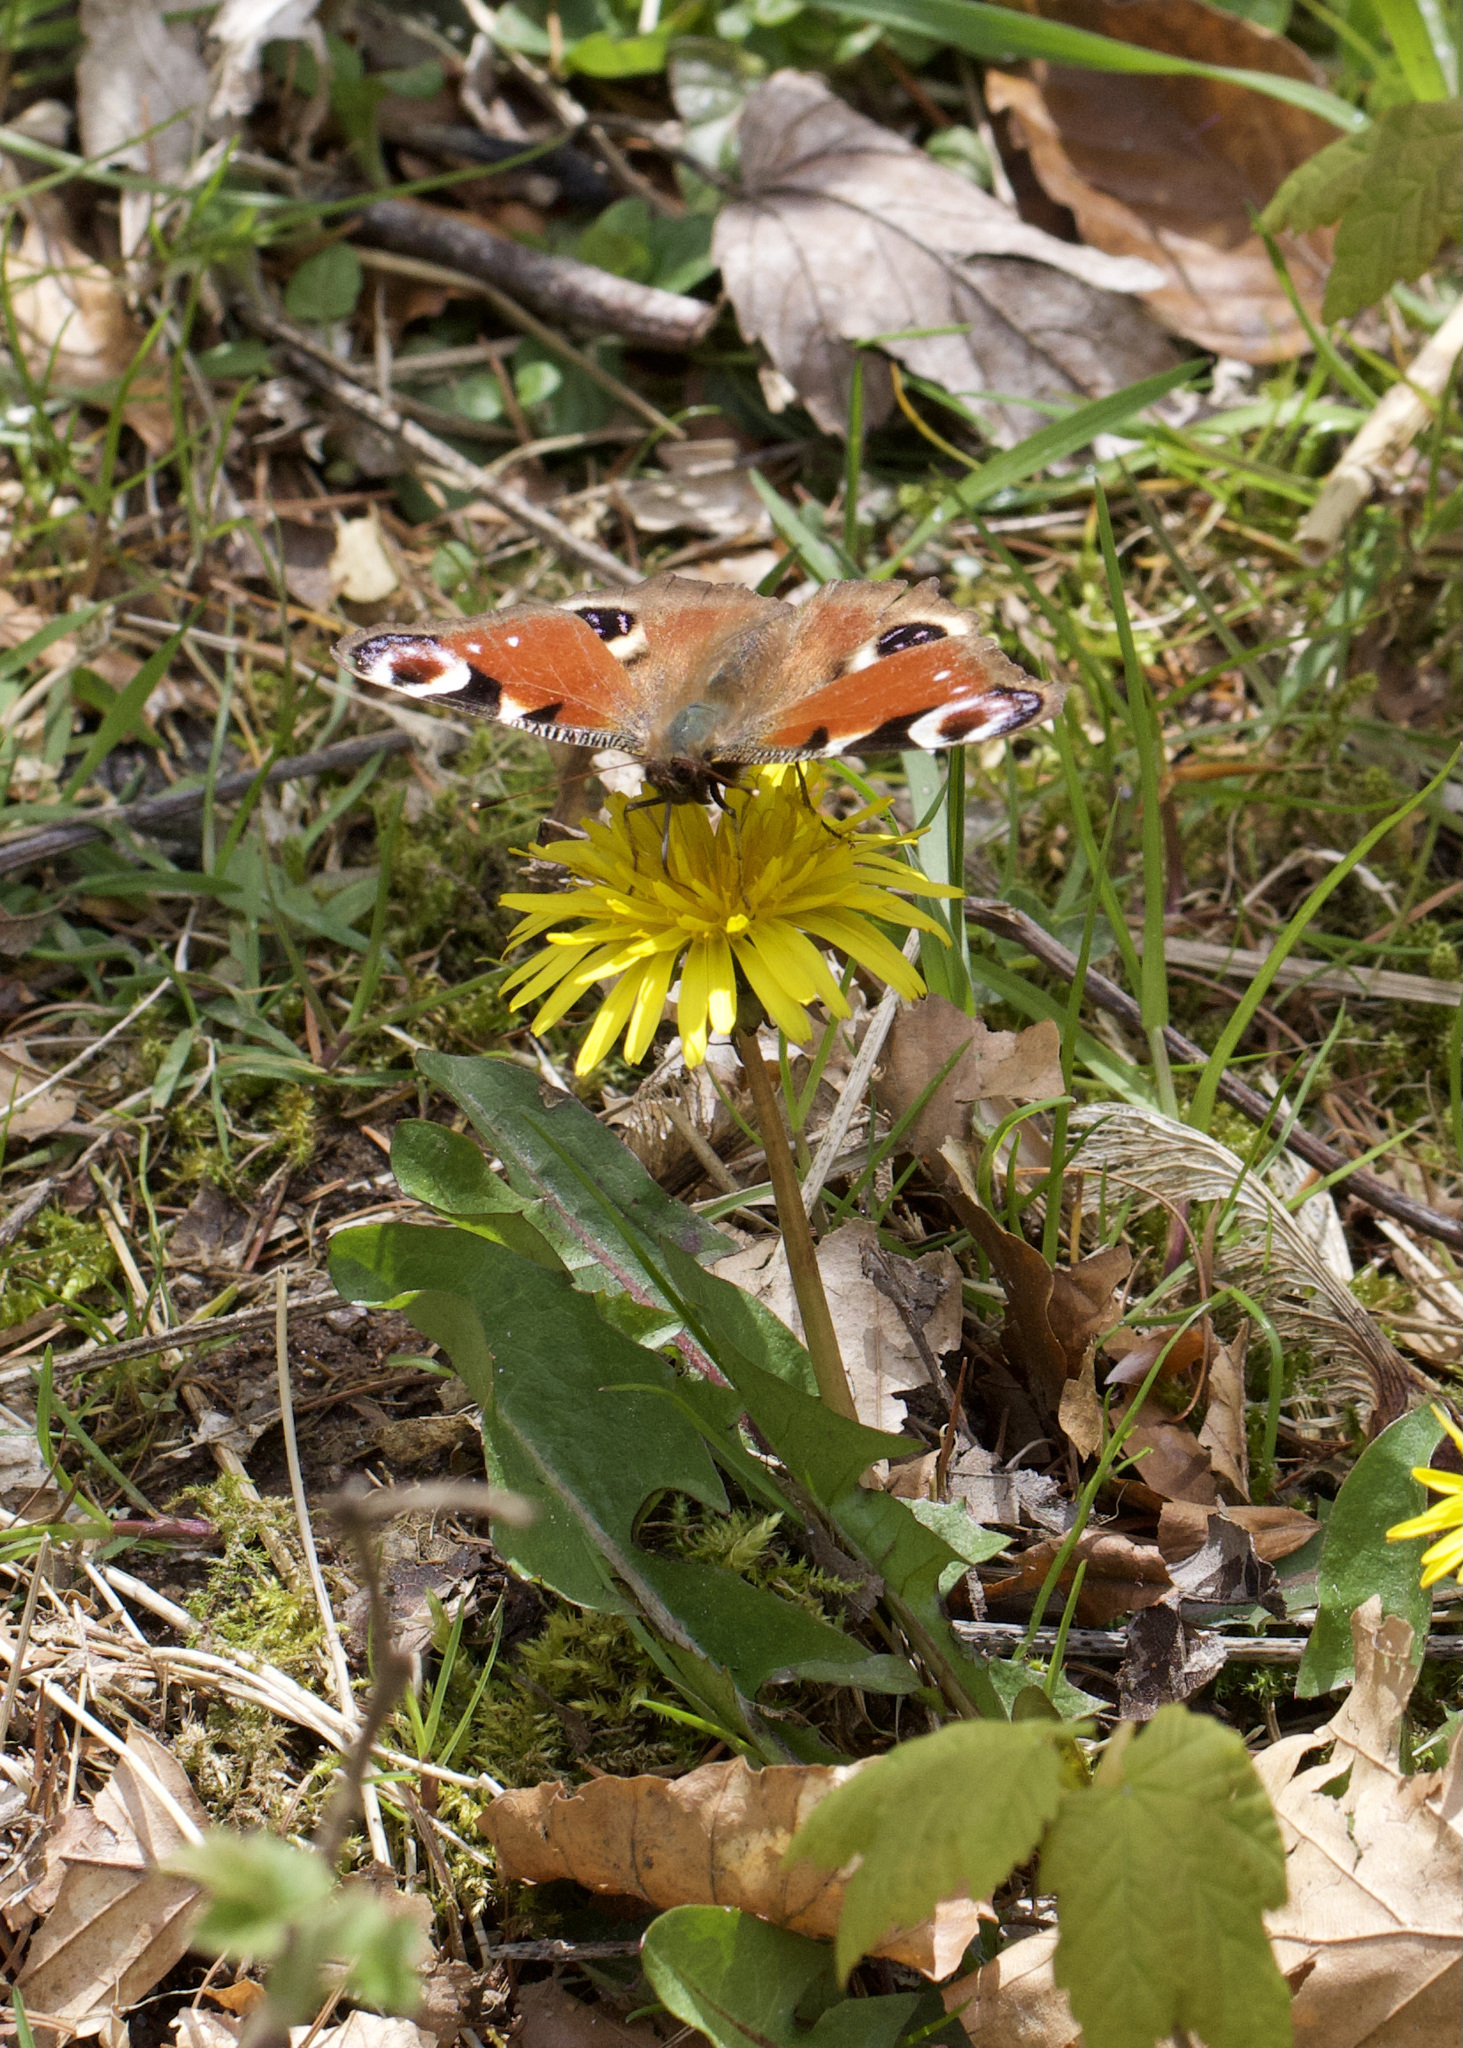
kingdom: Animalia
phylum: Arthropoda
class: Insecta
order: Lepidoptera
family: Nymphalidae
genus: Aglais
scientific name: Aglais io
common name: Peacock
